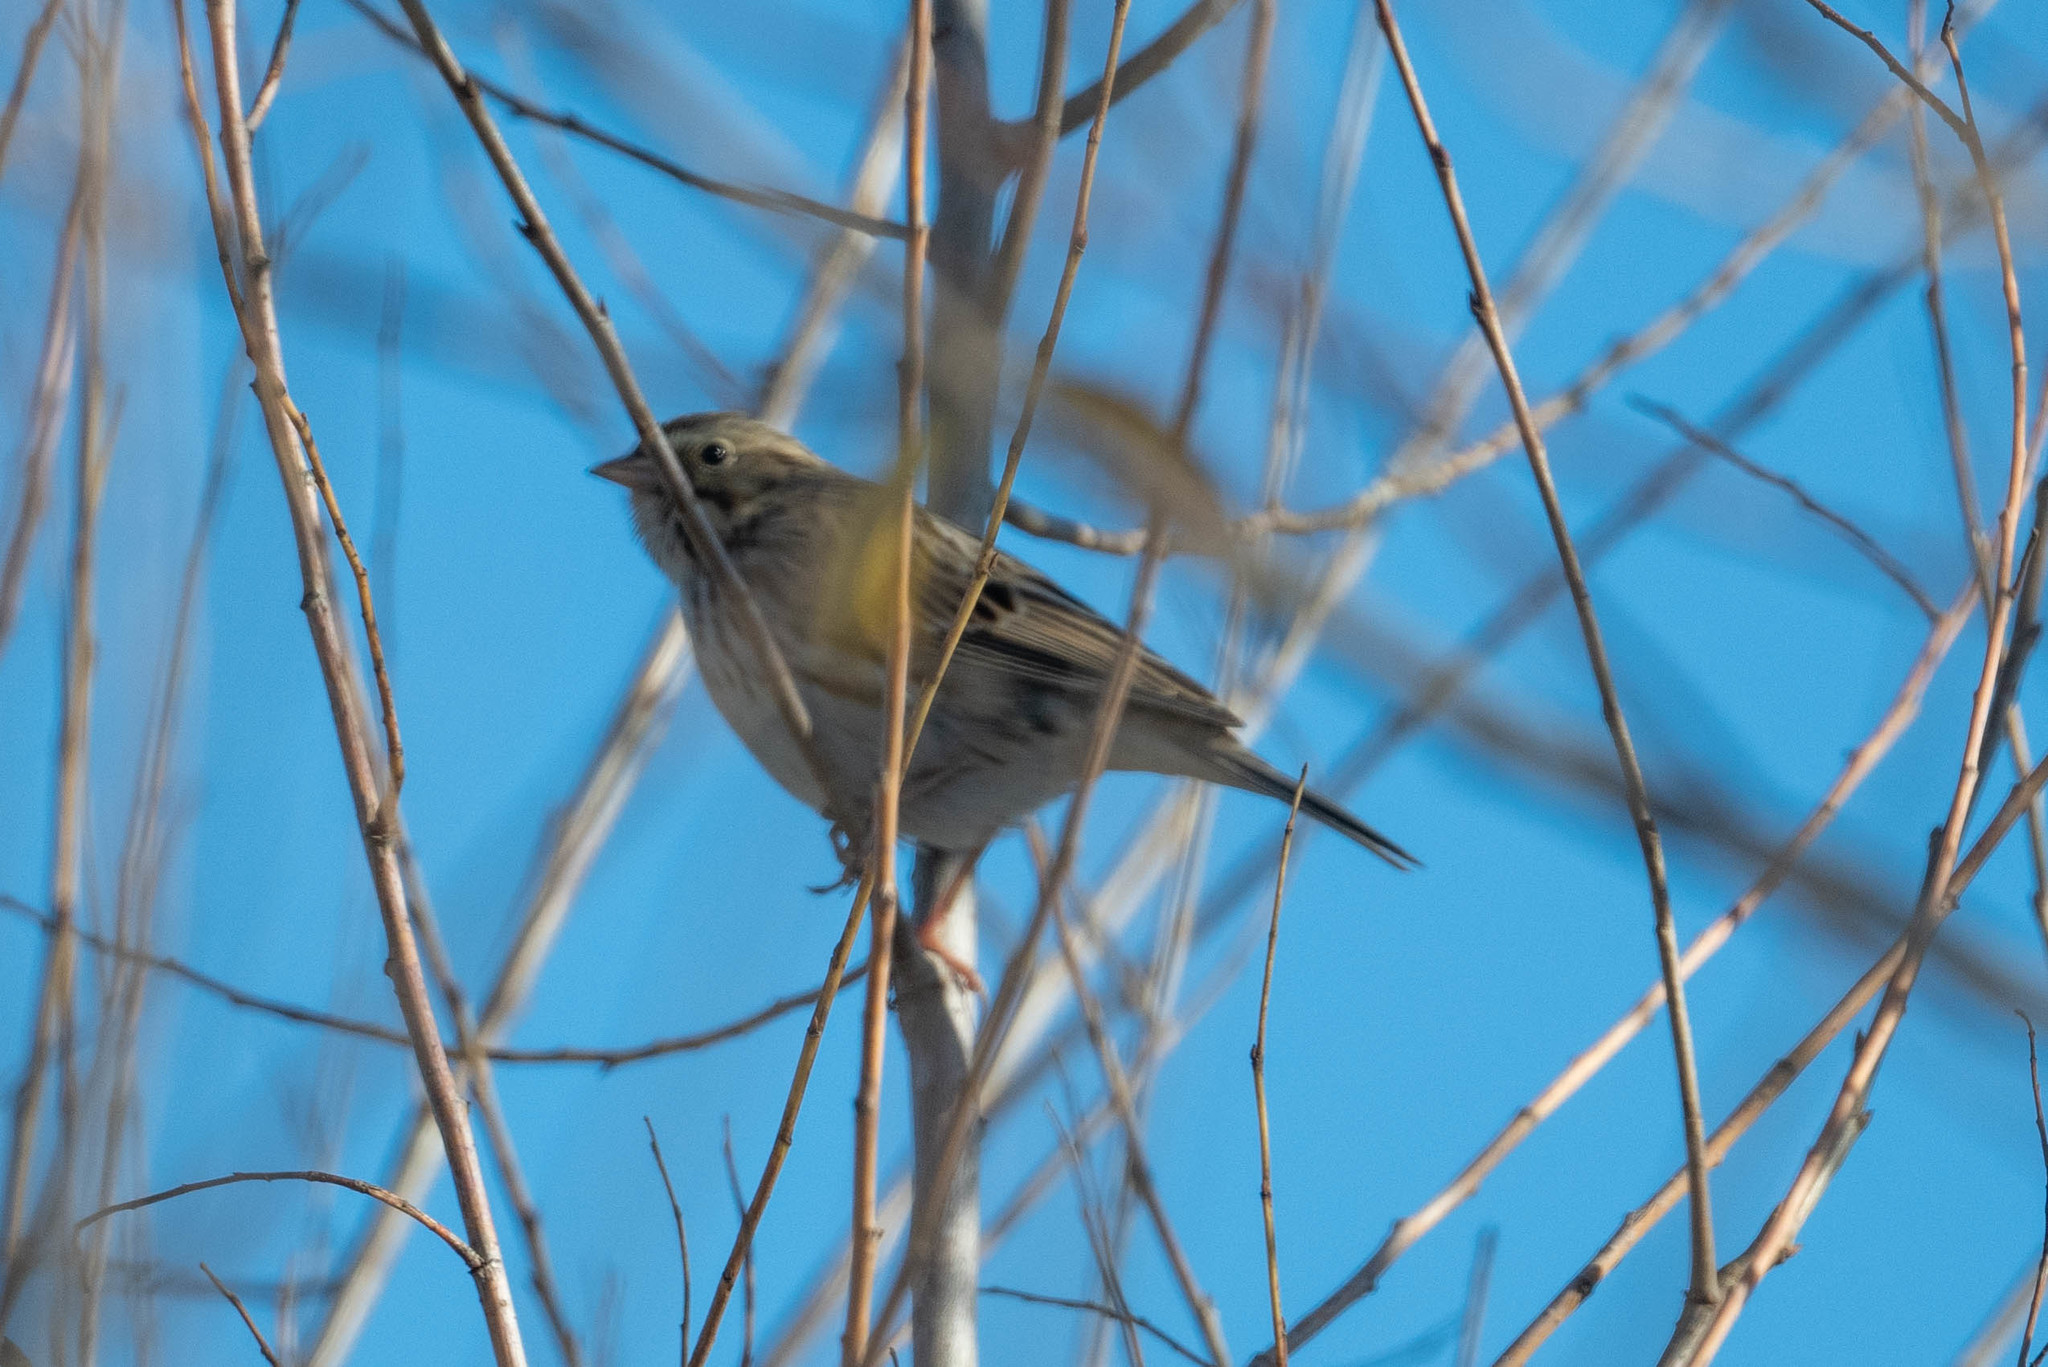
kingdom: Animalia
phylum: Chordata
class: Aves
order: Passeriformes
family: Passerellidae
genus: Passerculus
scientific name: Passerculus sandwichensis
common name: Savannah sparrow
